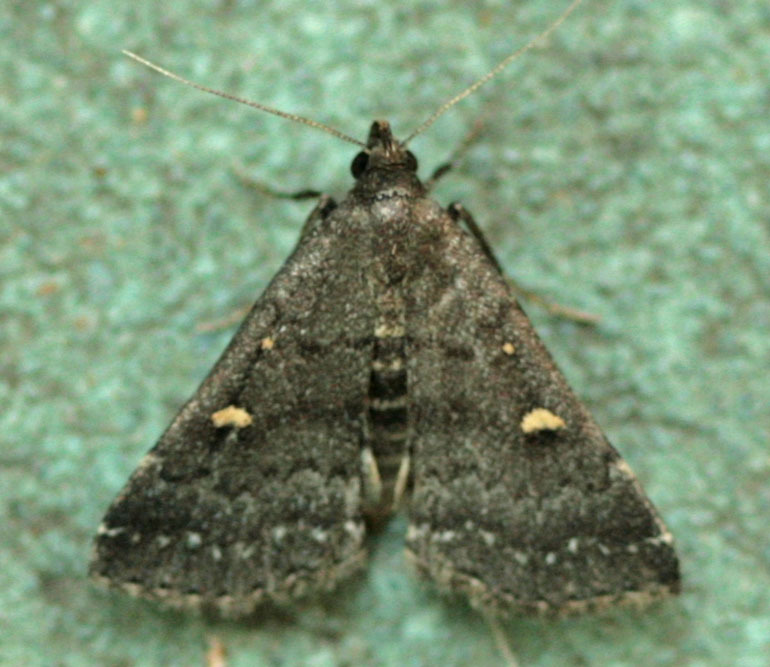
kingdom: Animalia
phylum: Arthropoda
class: Insecta
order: Lepidoptera
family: Erebidae
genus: Tetanolita
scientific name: Tetanolita mynesalis
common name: Smoky tetanolita moth
